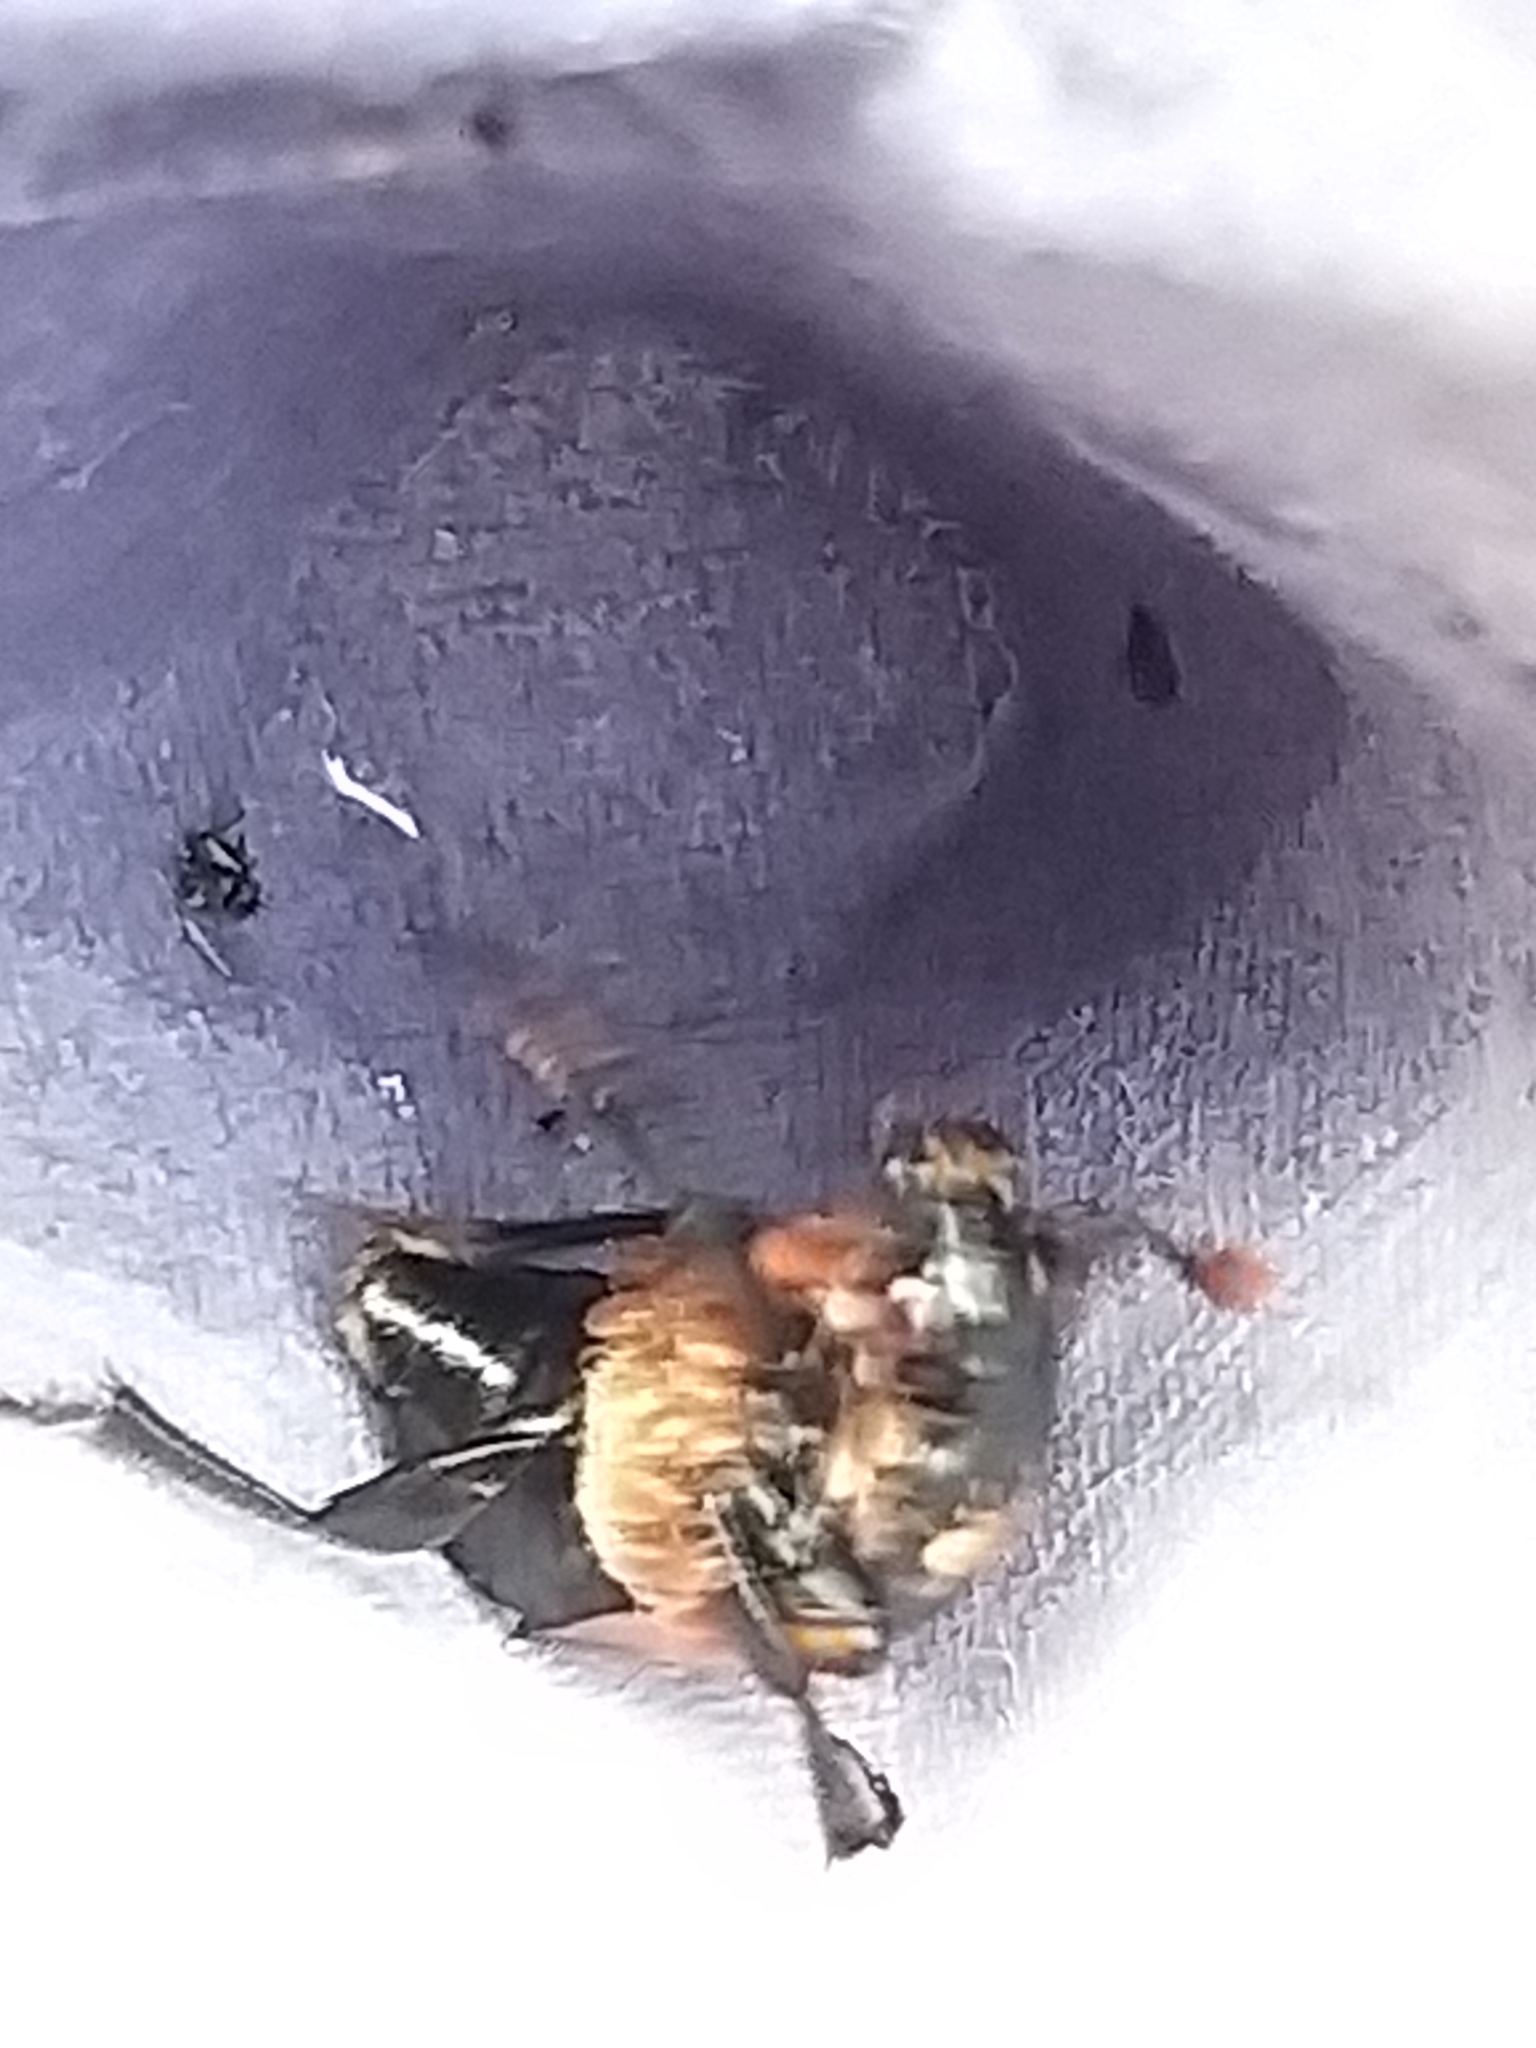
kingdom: Animalia
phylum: Arthropoda
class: Insecta
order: Coleoptera
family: Staphylinidae
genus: Nicrophorus
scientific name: Nicrophorus investigator
